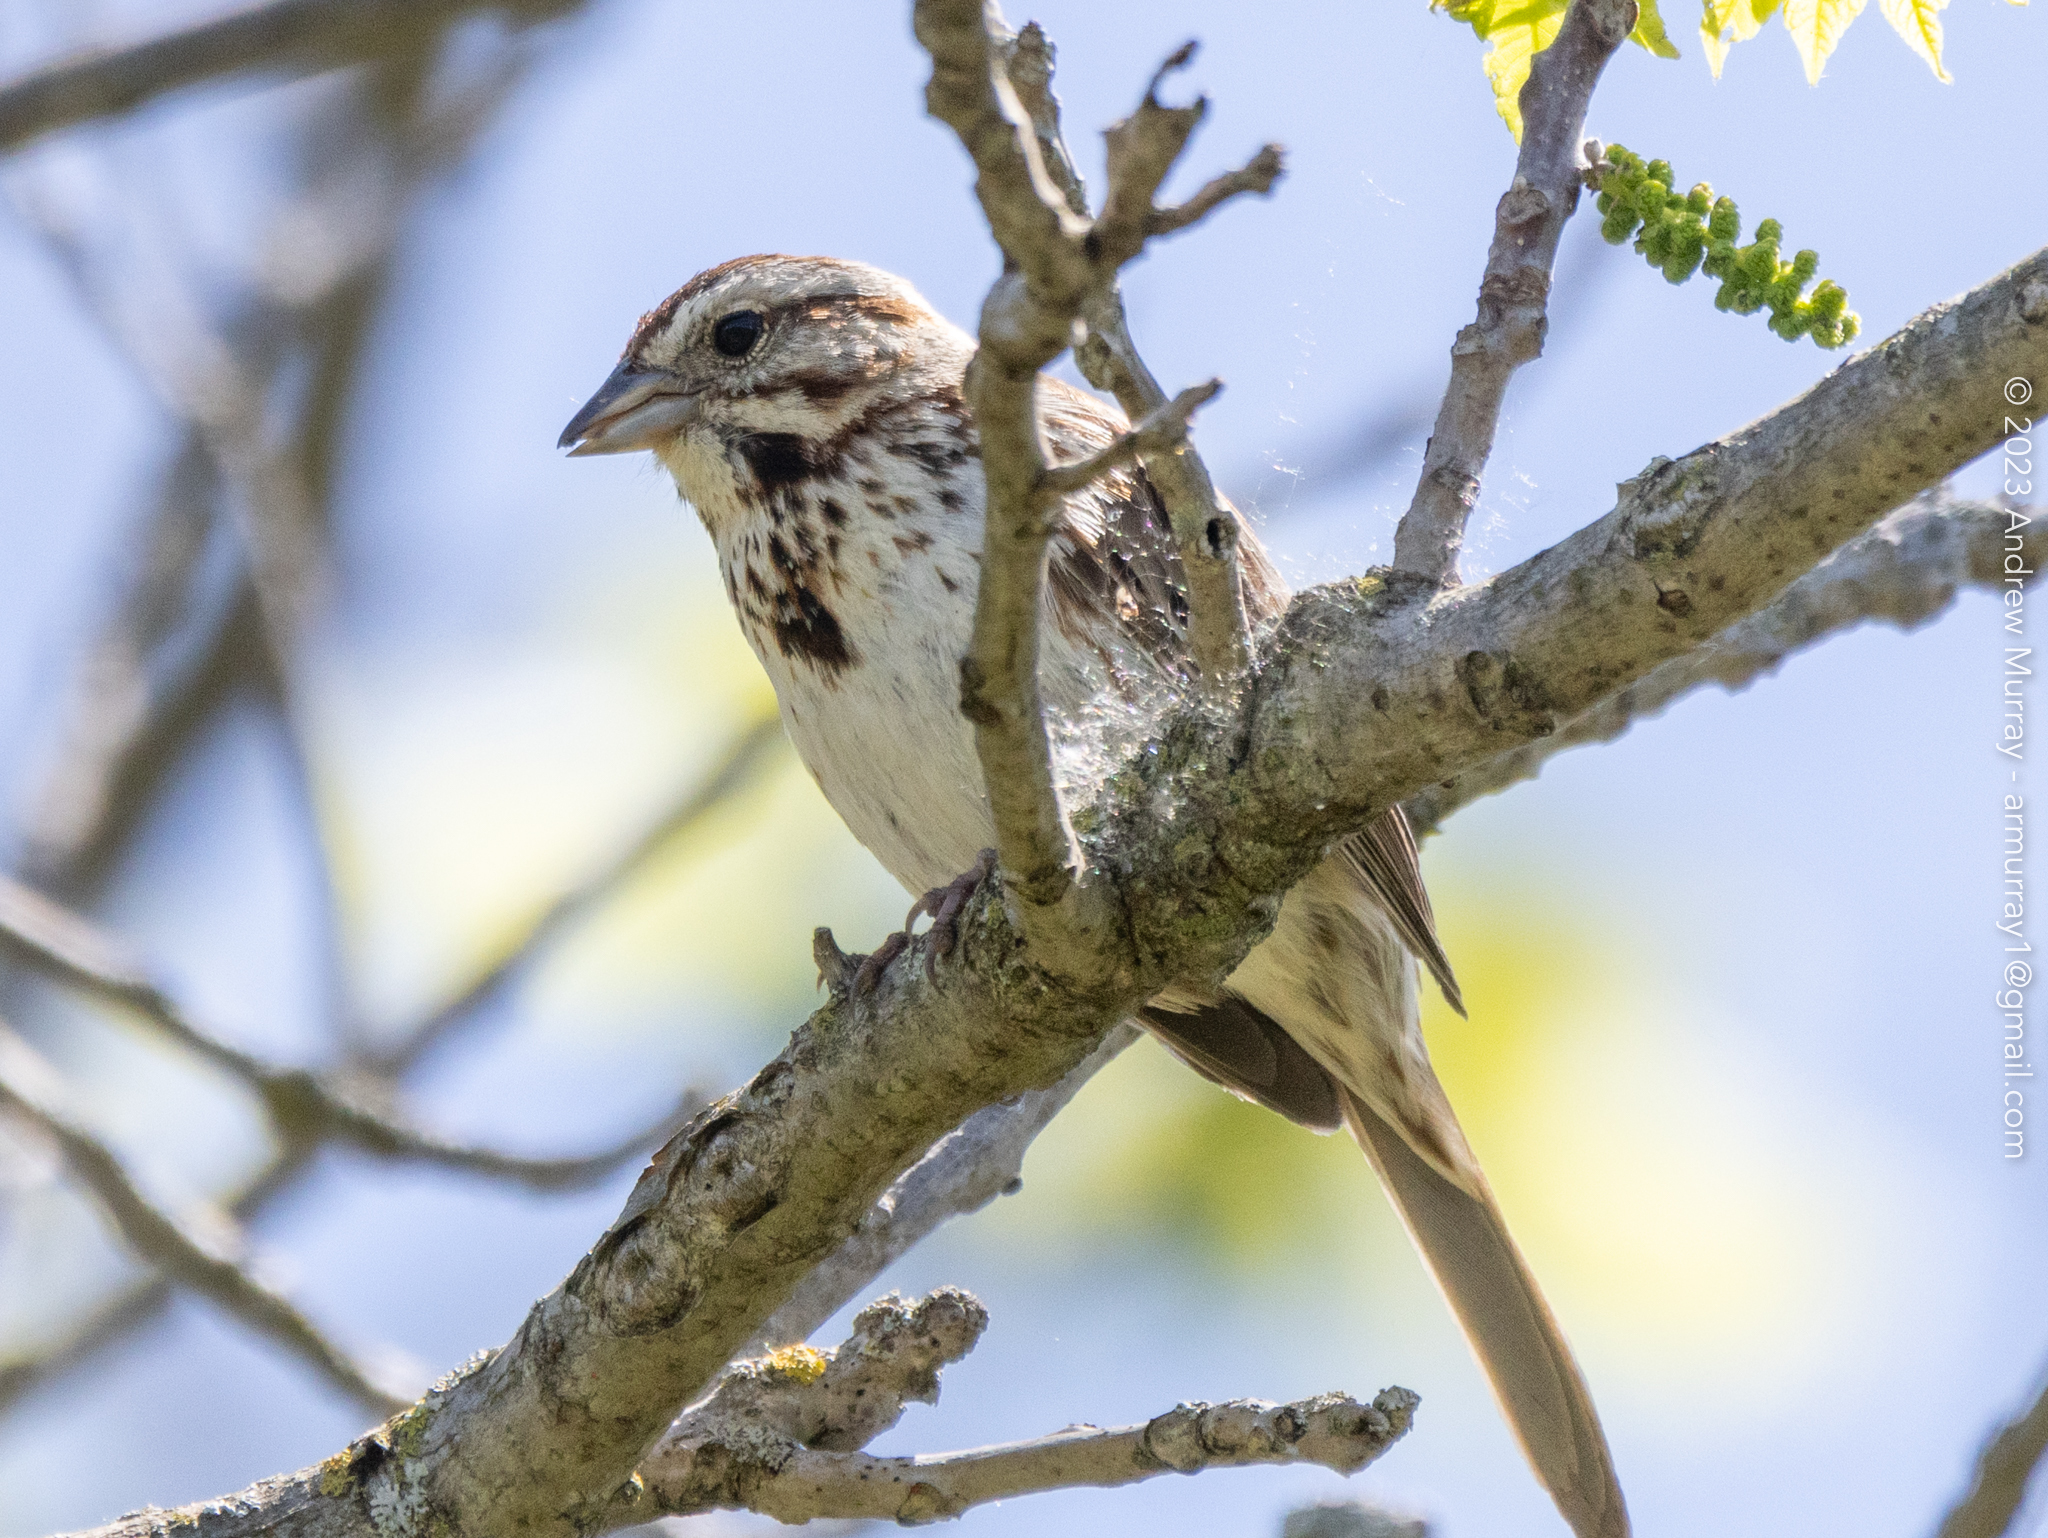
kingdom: Animalia
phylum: Chordata
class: Aves
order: Passeriformes
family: Passerellidae
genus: Melospiza
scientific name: Melospiza melodia
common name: Song sparrow
